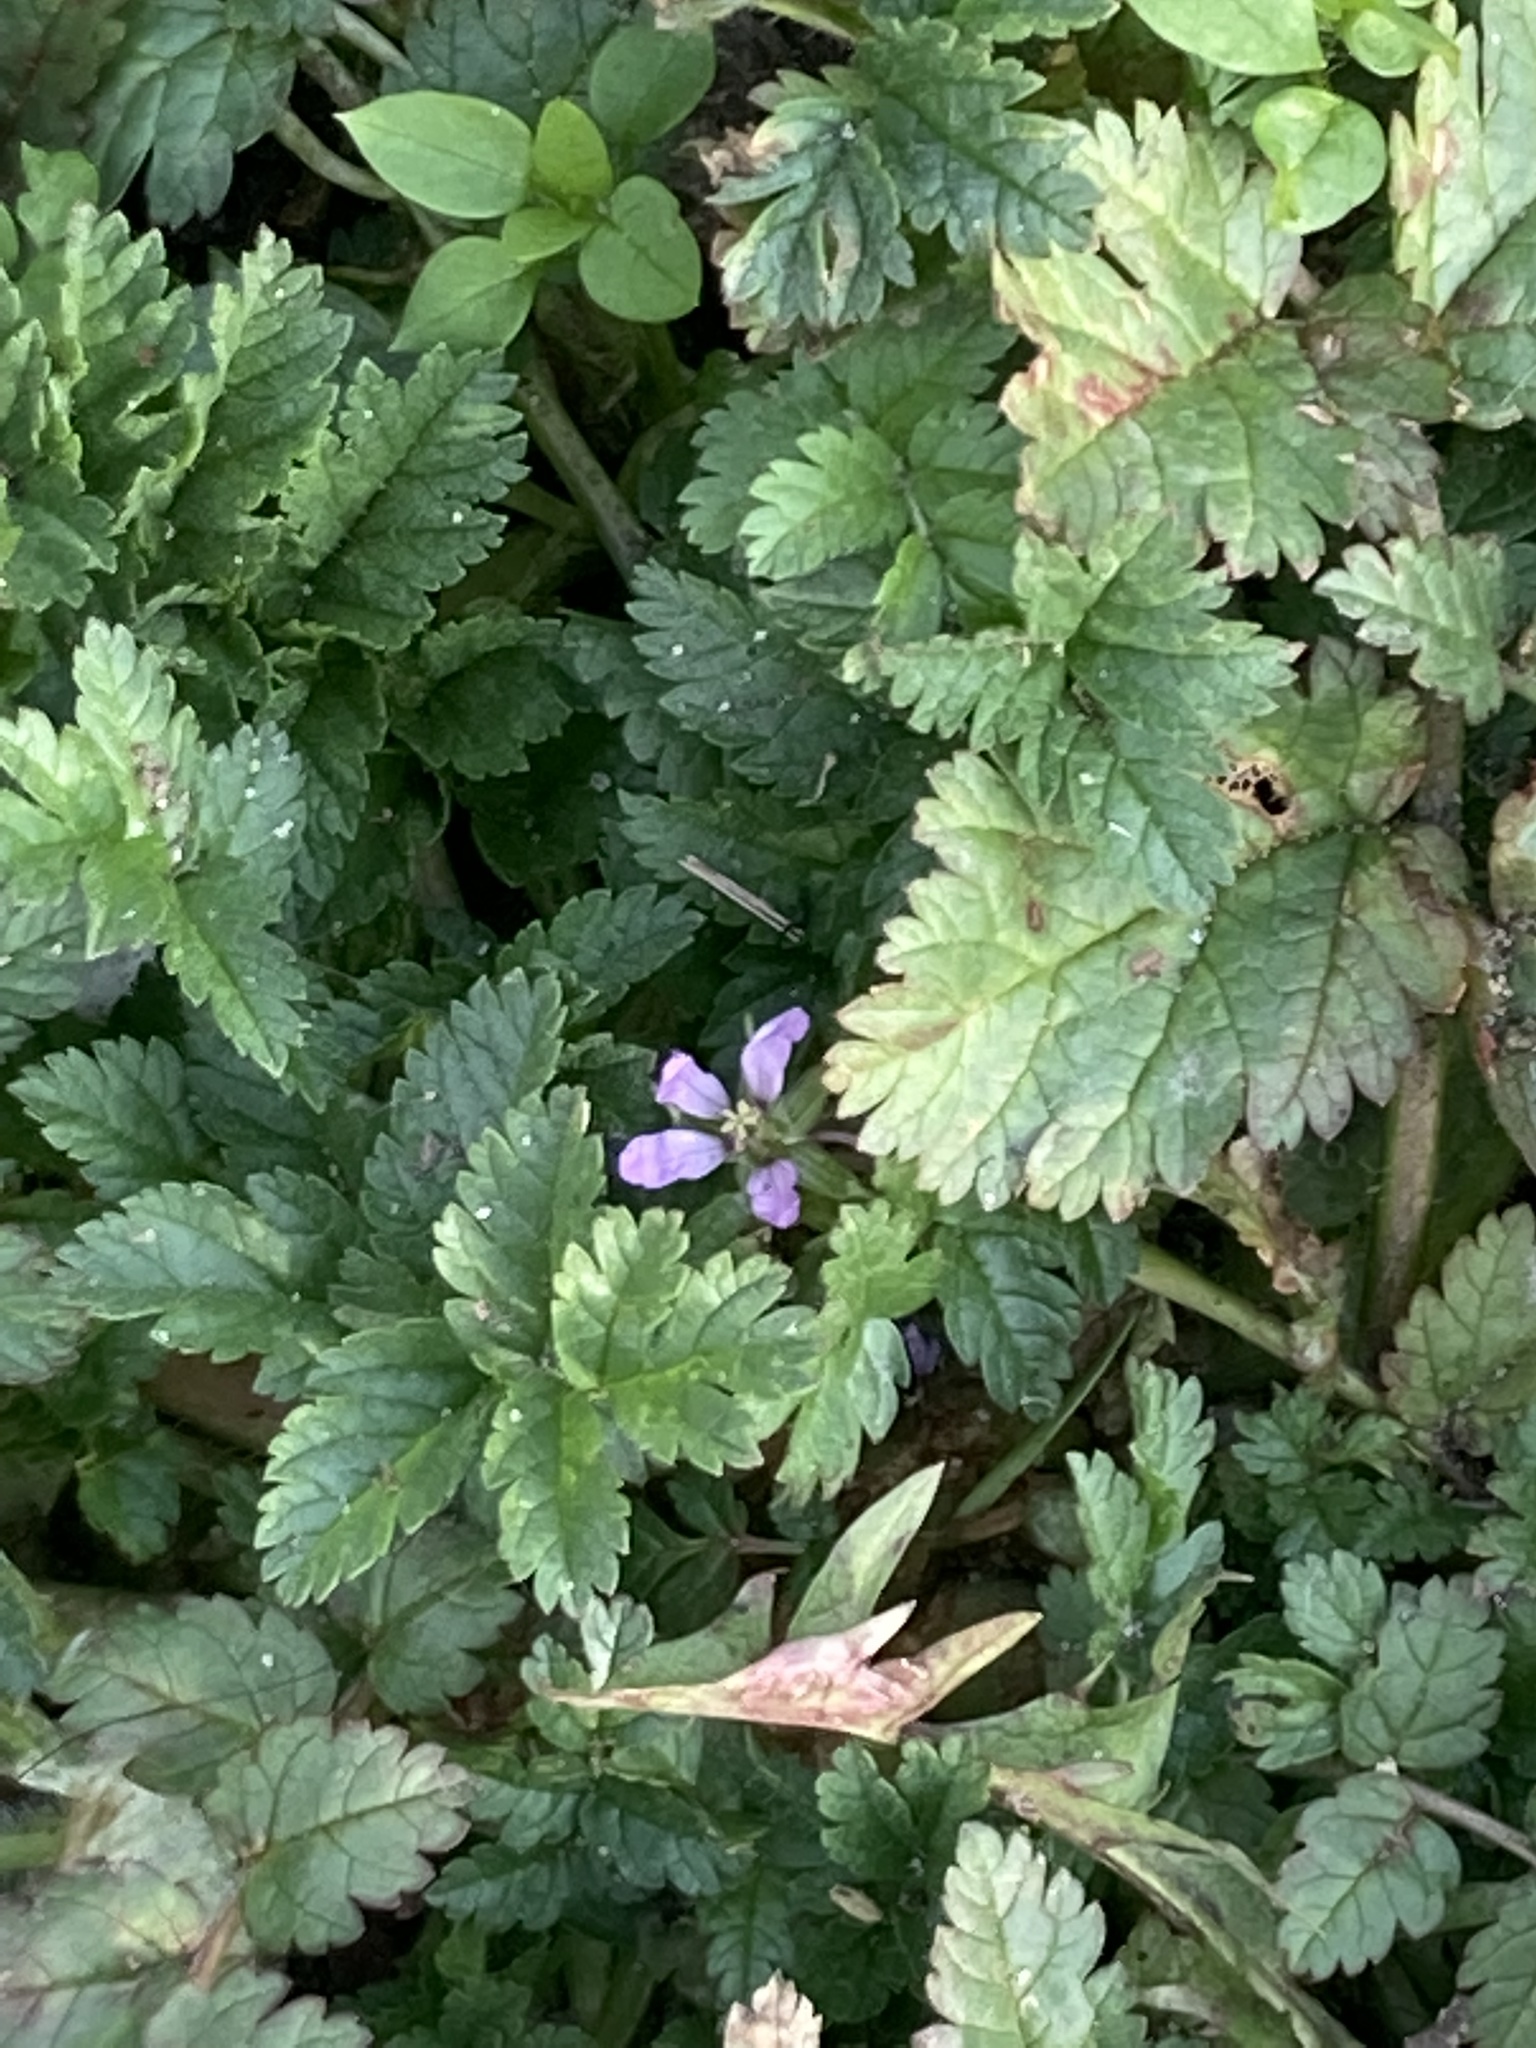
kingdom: Plantae
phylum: Tracheophyta
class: Magnoliopsida
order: Geraniales
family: Geraniaceae
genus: Erodium
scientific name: Erodium moschatum
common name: Musk stork's-bill
